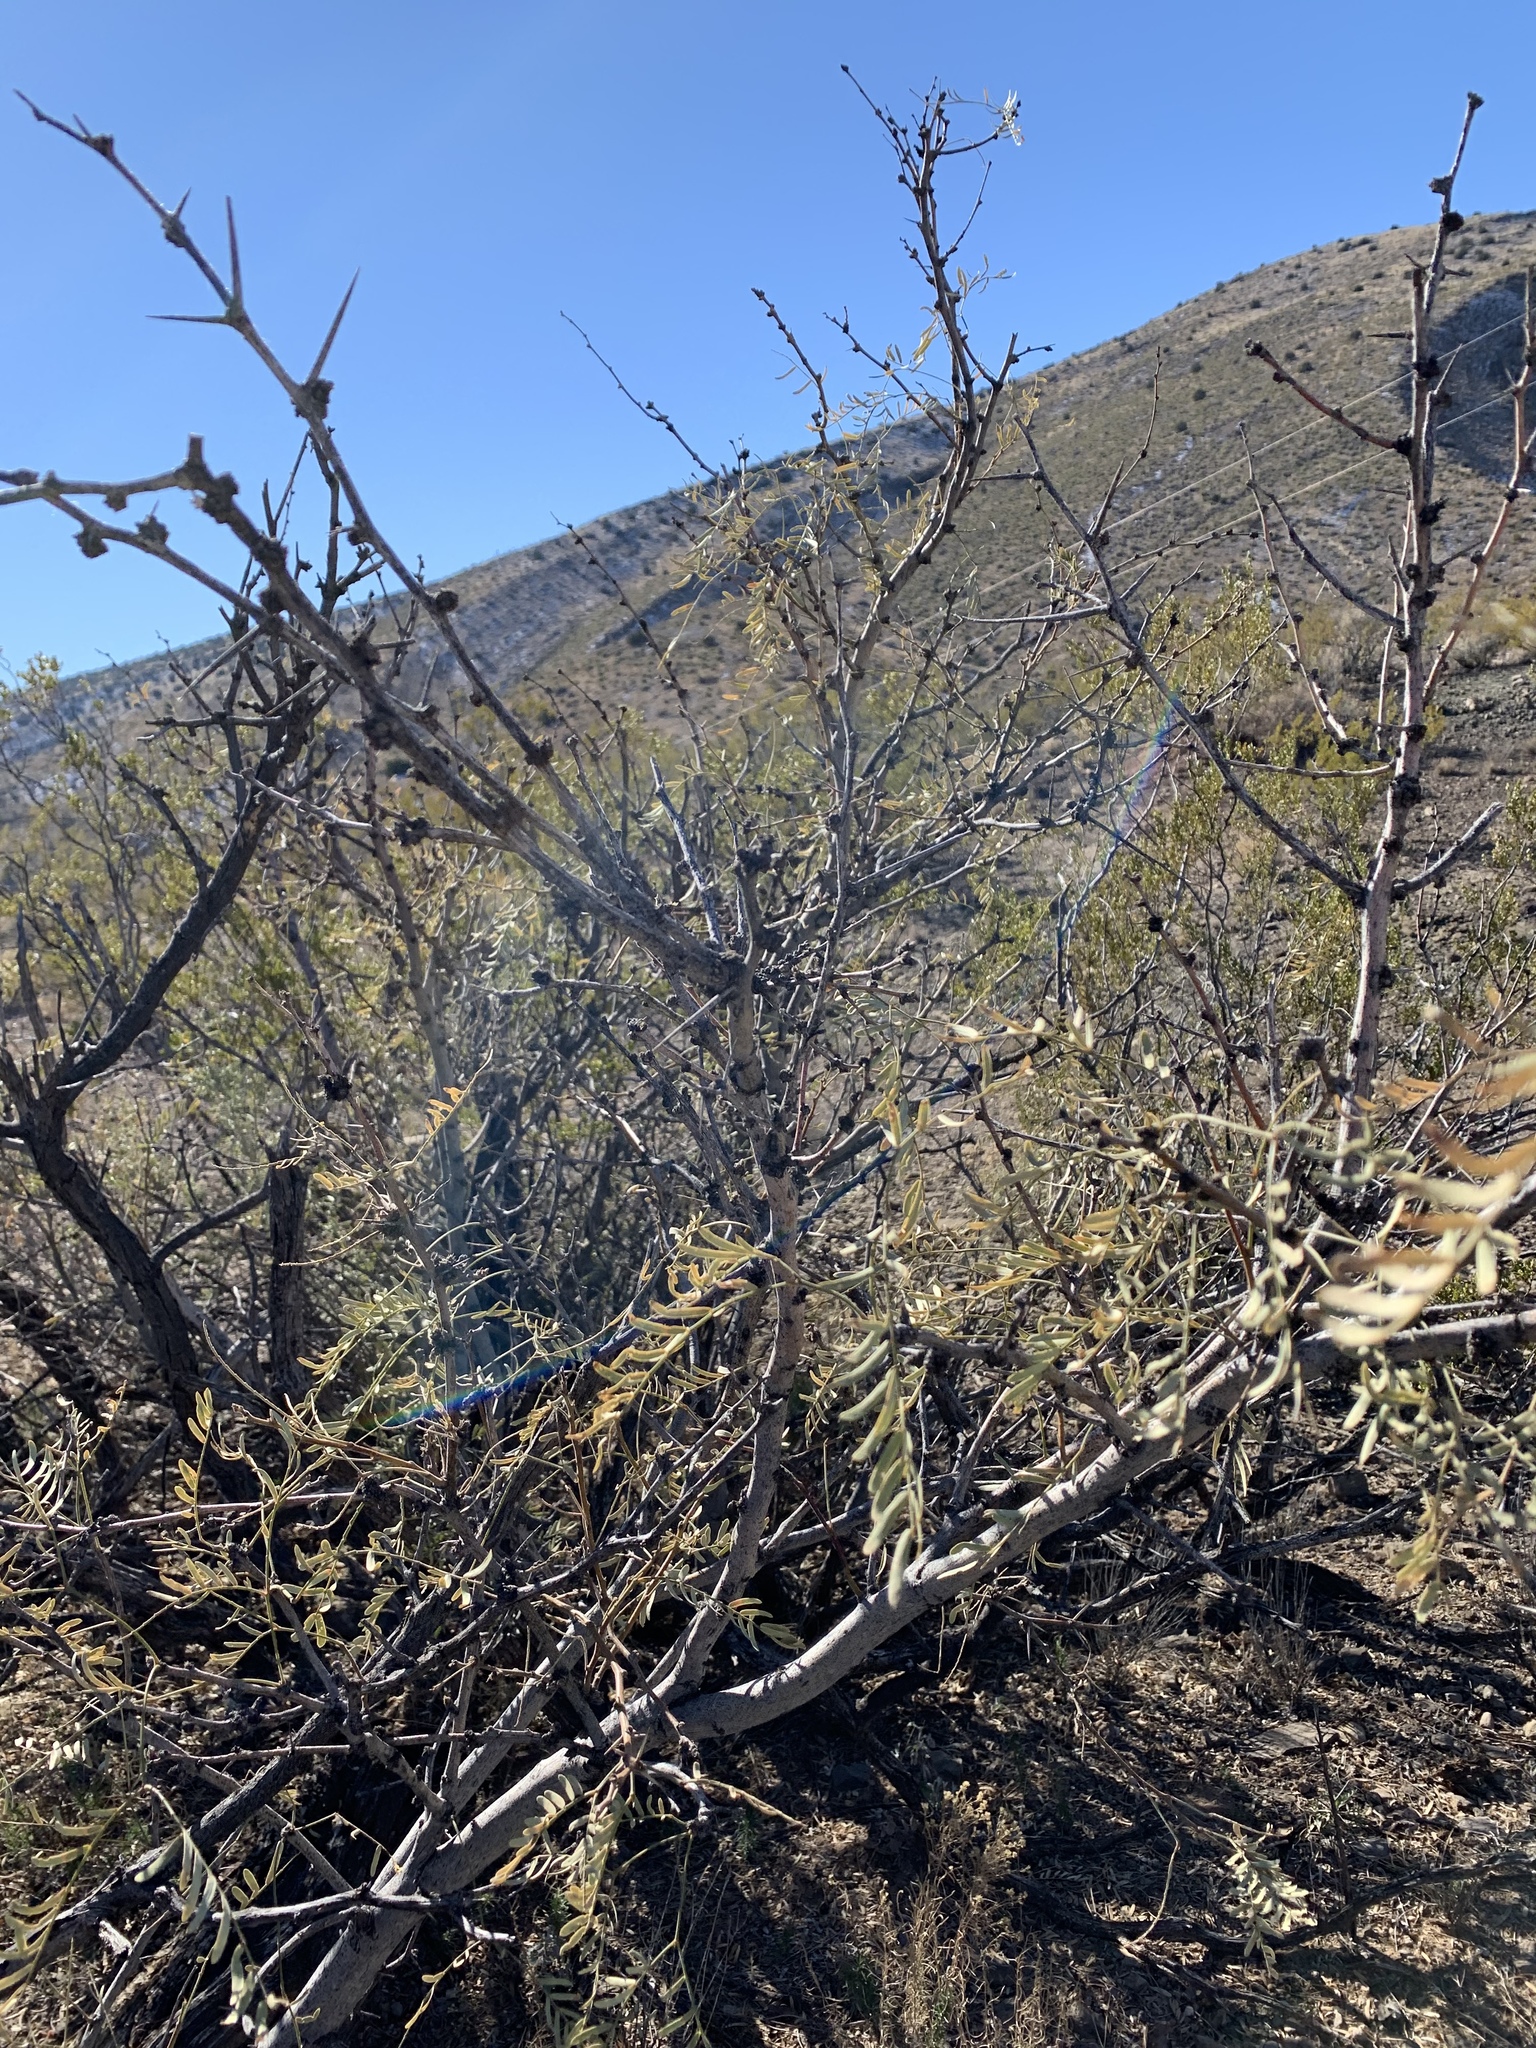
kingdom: Plantae
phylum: Tracheophyta
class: Magnoliopsida
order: Fabales
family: Fabaceae
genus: Prosopis
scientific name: Prosopis glandulosa
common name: Honey mesquite
